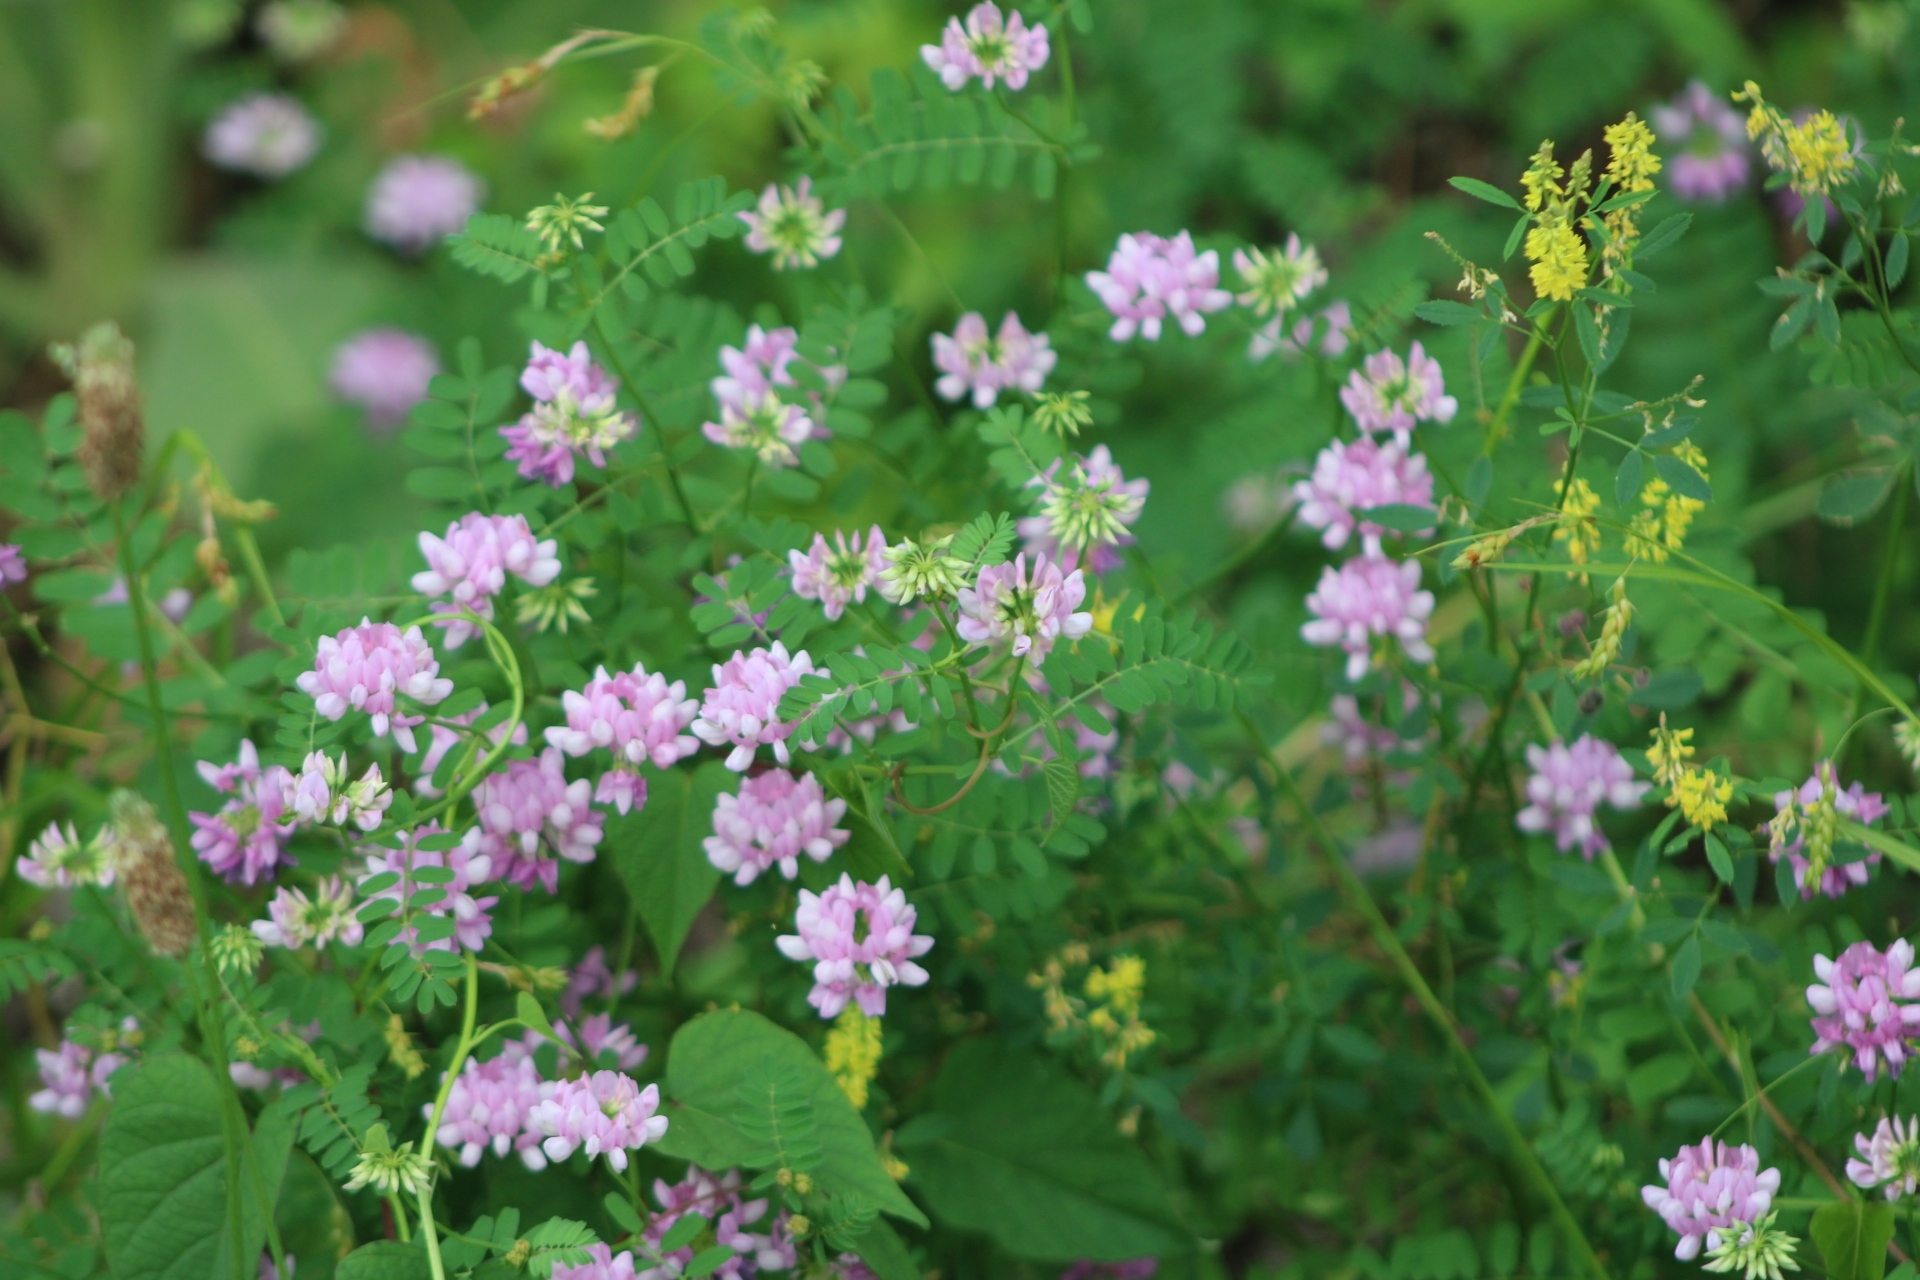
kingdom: Plantae
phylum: Tracheophyta
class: Magnoliopsida
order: Fabales
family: Fabaceae
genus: Coronilla
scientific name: Coronilla varia
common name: Crownvetch
